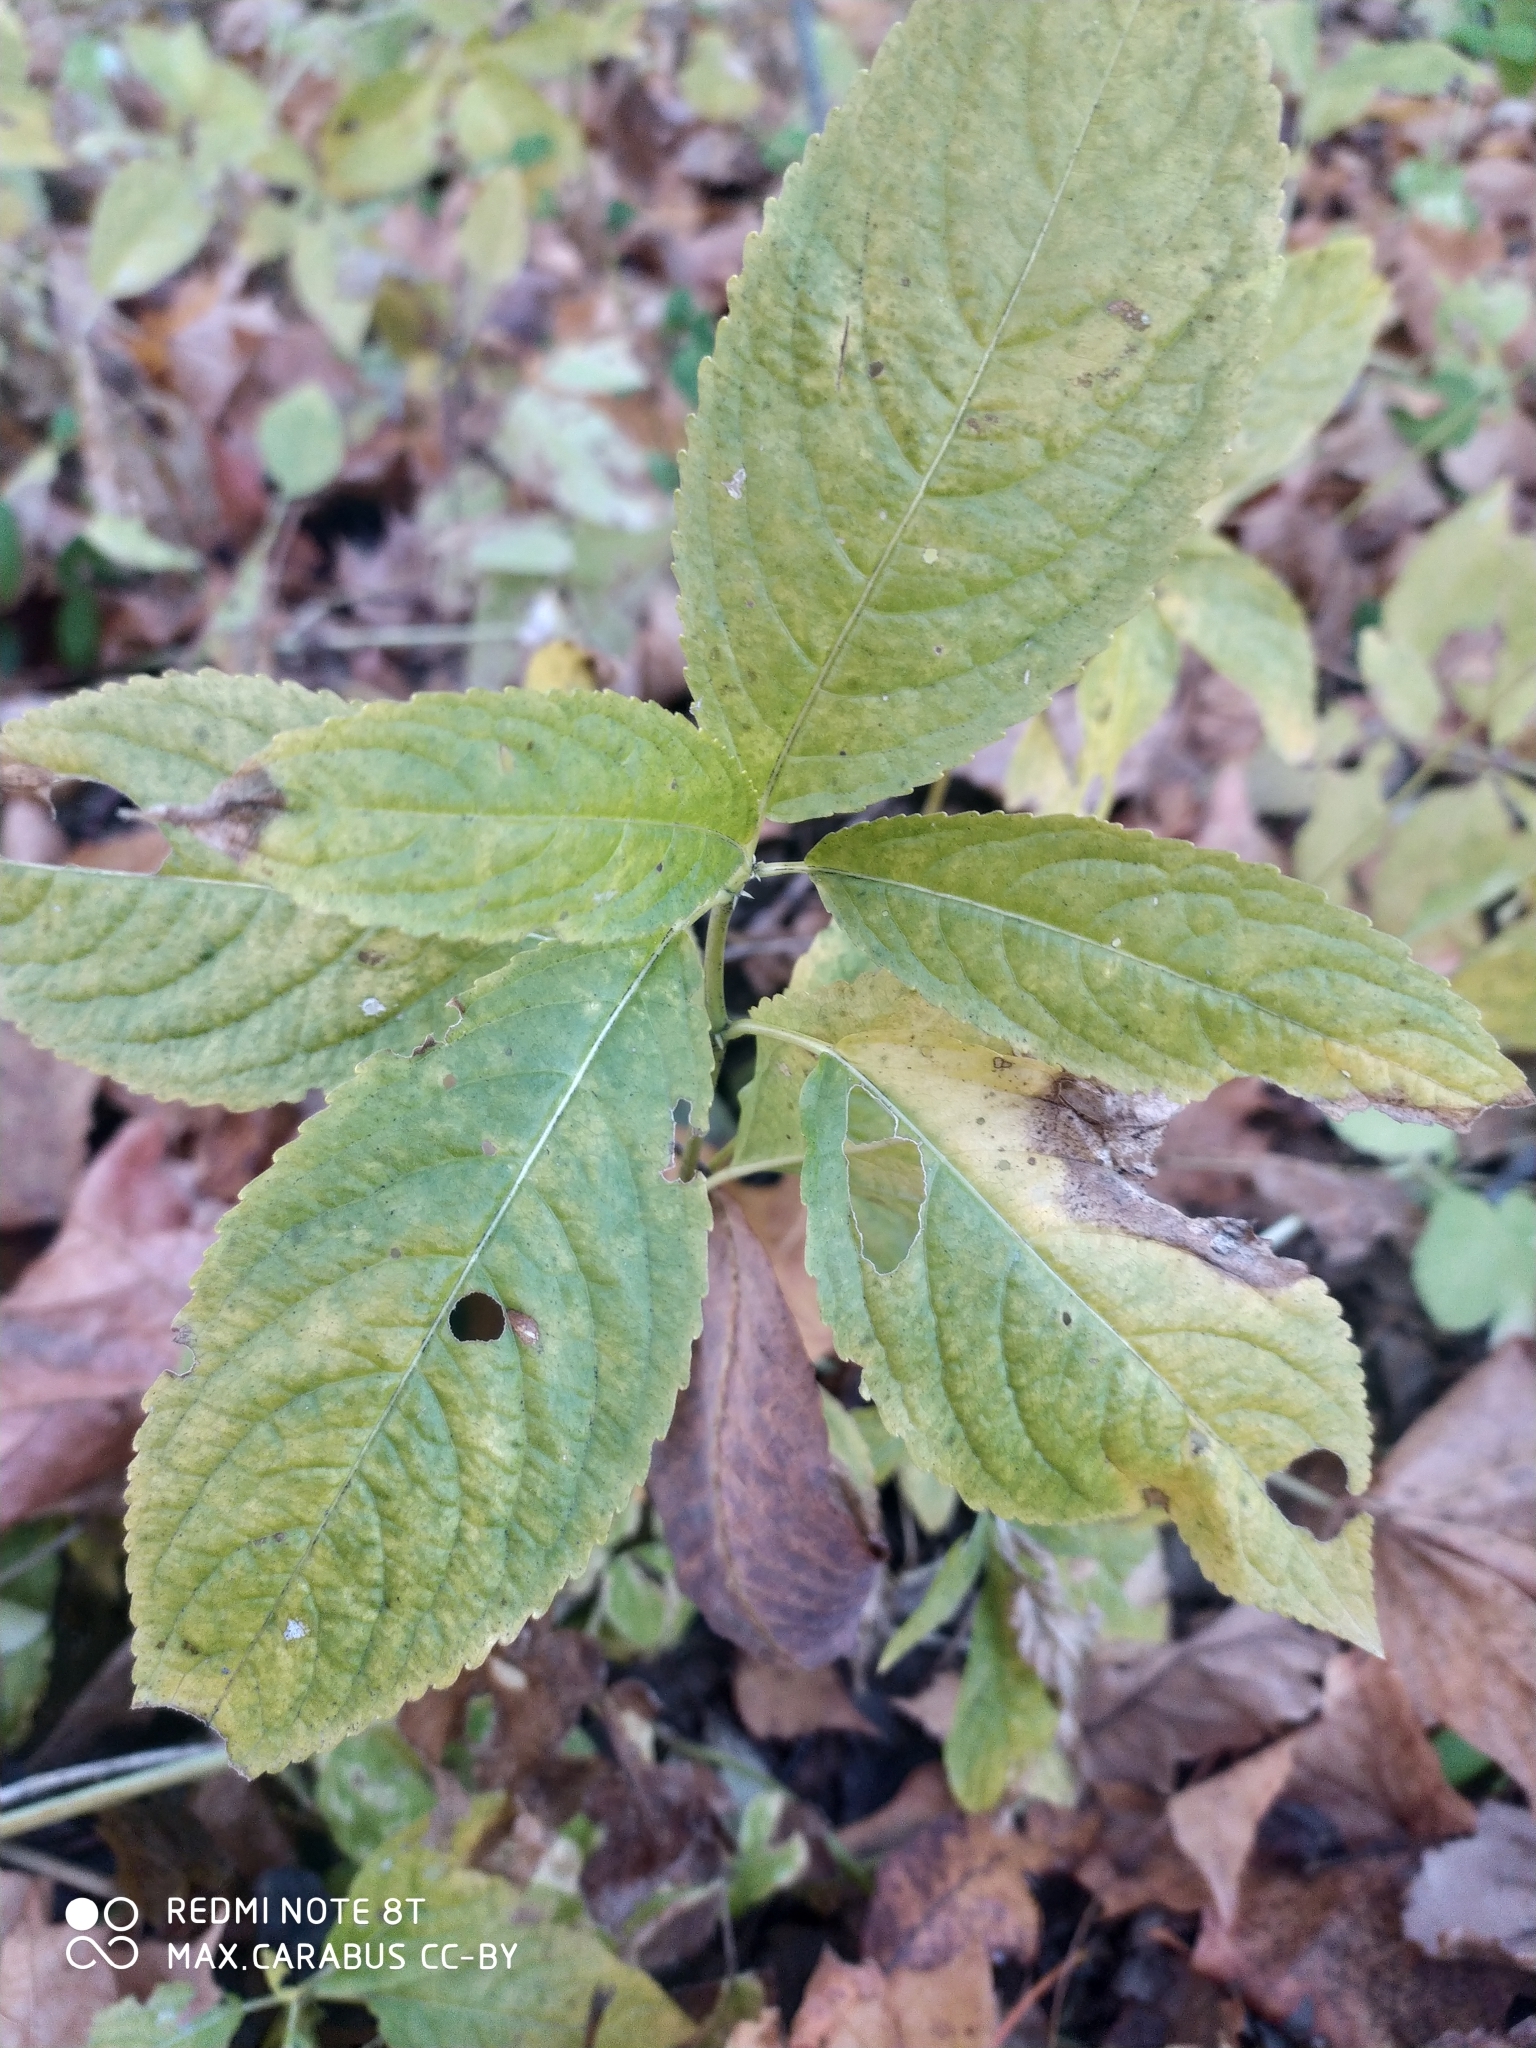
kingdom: Plantae
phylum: Tracheophyta
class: Magnoliopsida
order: Malpighiales
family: Euphorbiaceae
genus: Mercurialis
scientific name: Mercurialis perennis
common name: Dog mercury
